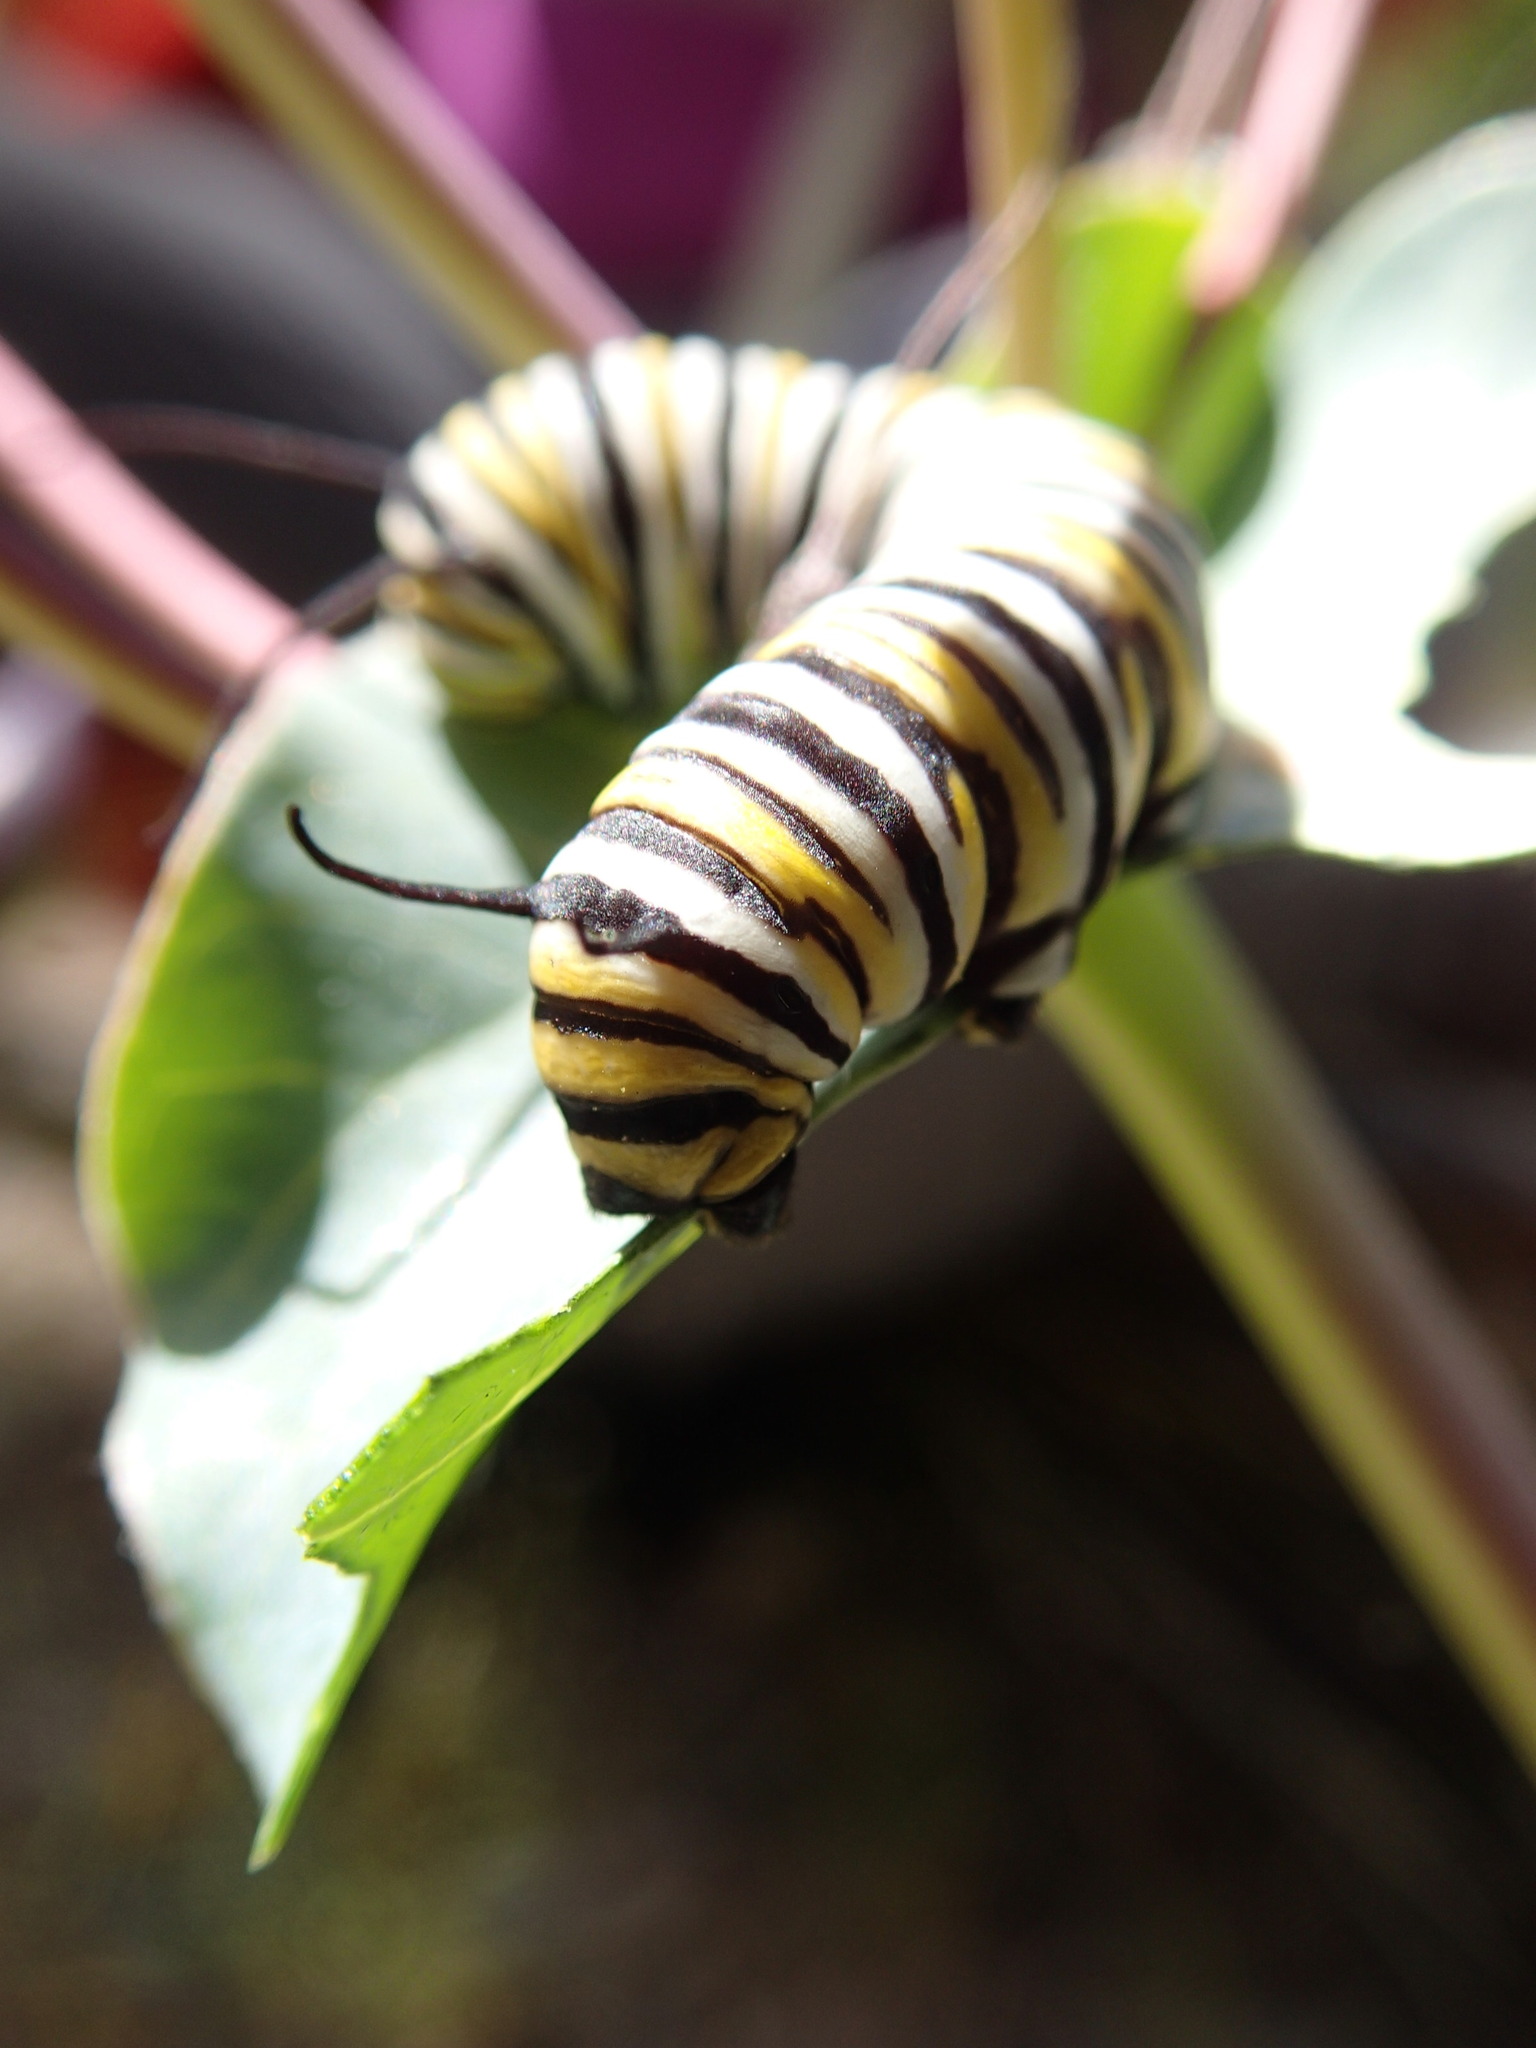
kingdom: Animalia
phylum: Arthropoda
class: Insecta
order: Lepidoptera
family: Nymphalidae
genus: Danaus
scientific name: Danaus plexippus
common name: Monarch
